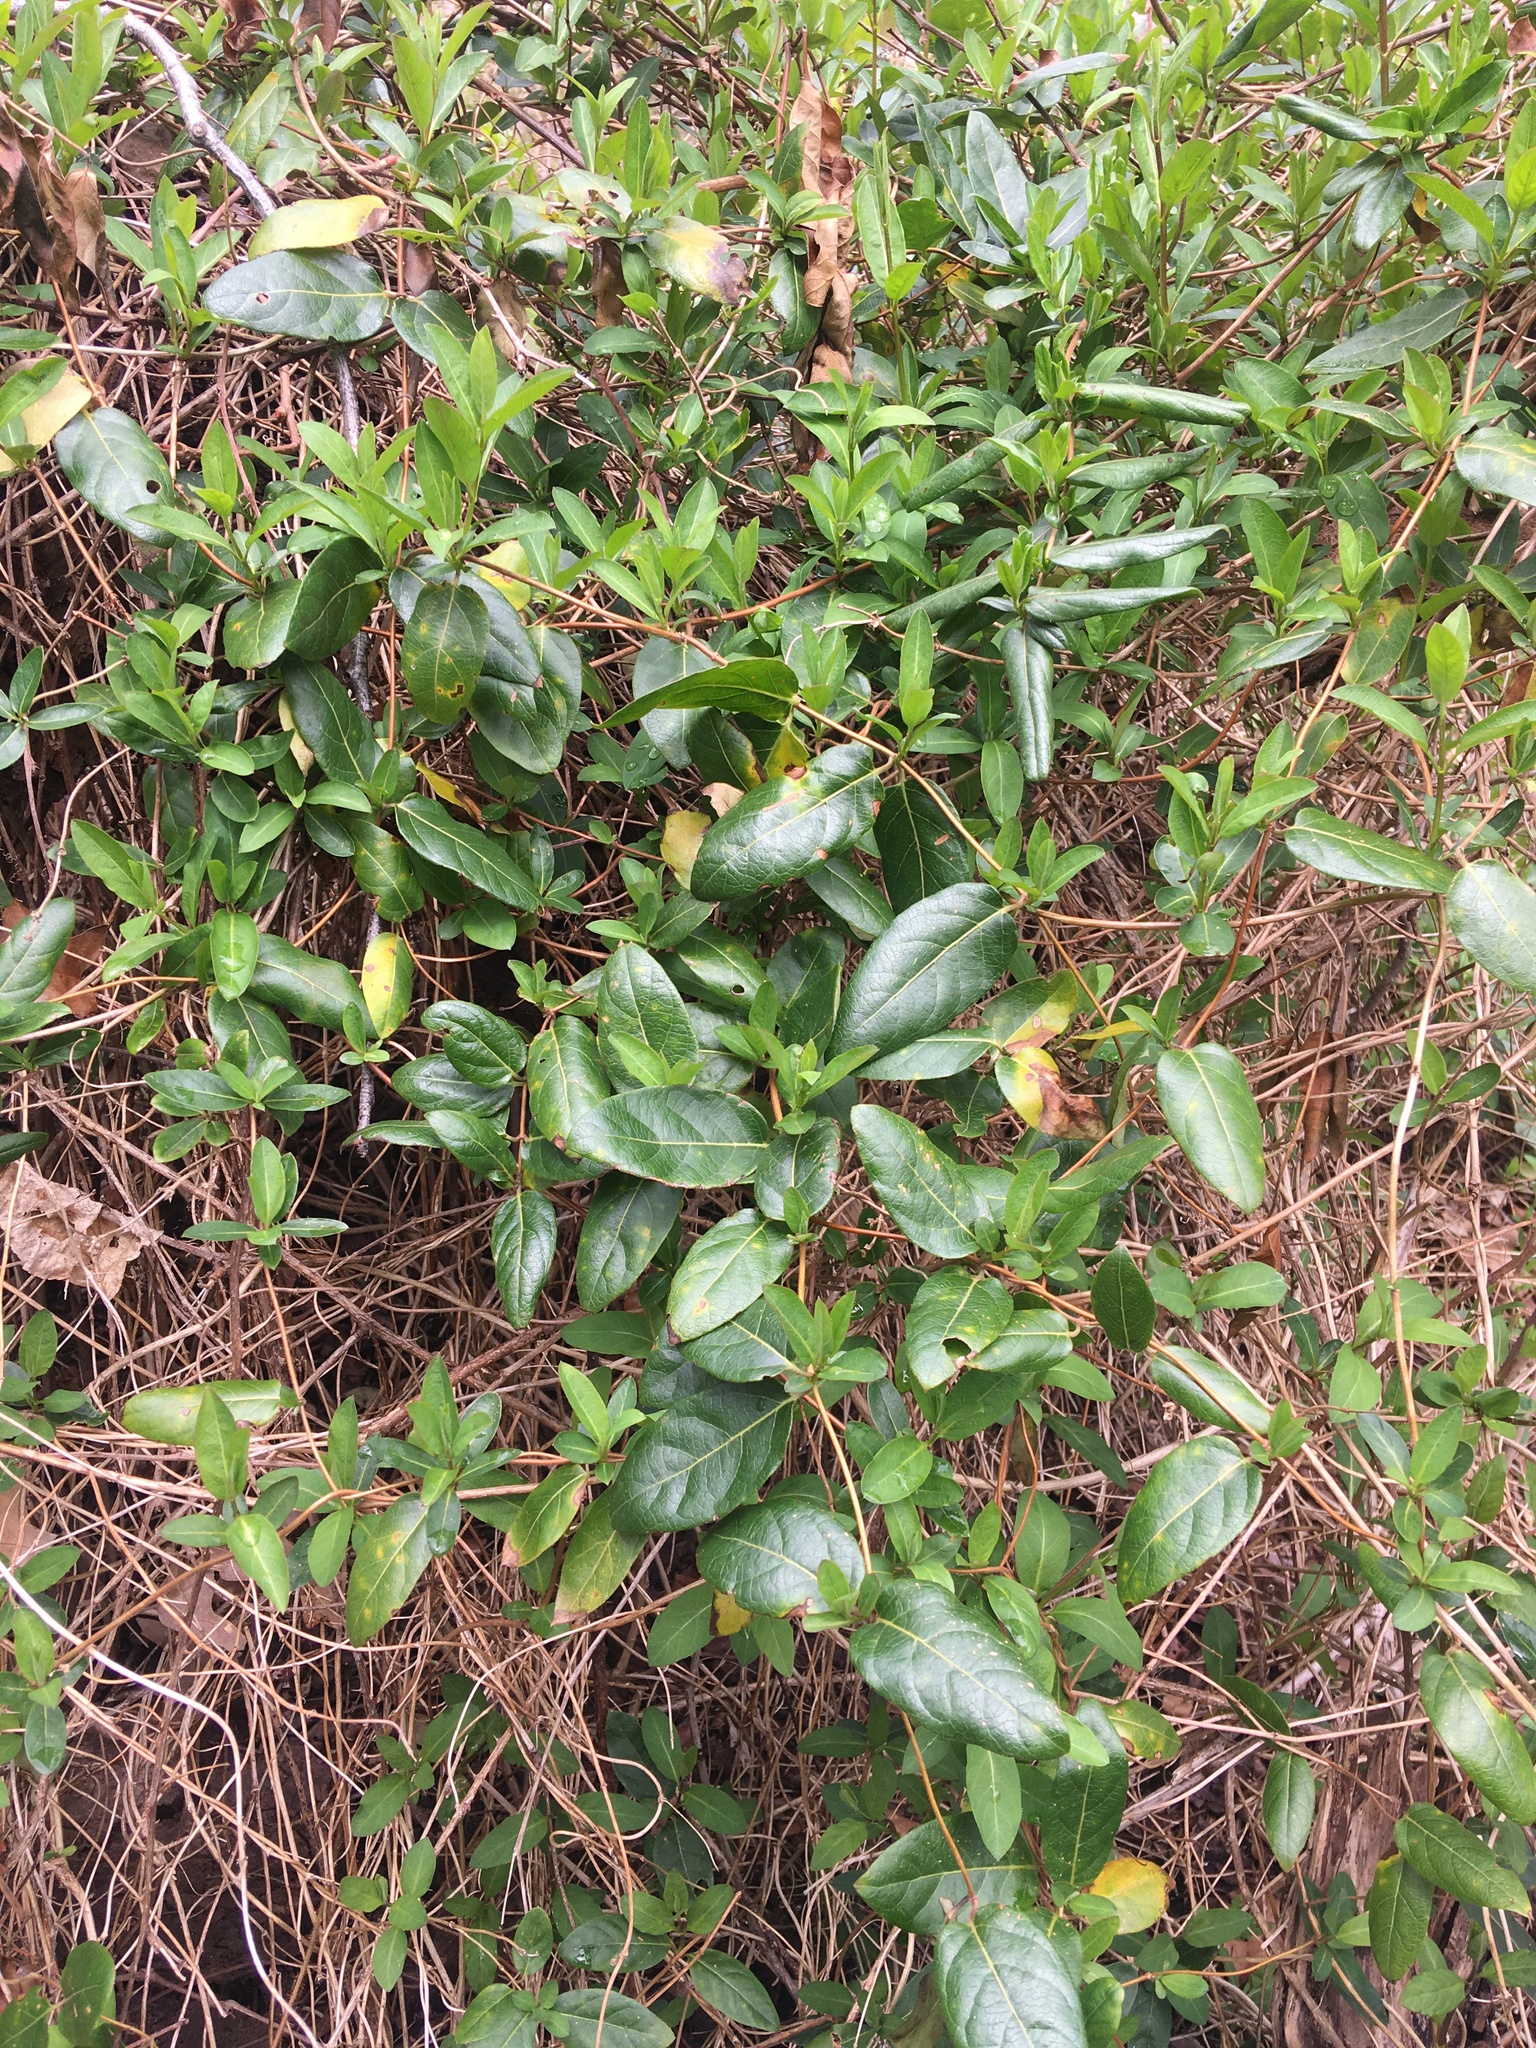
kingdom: Plantae
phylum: Tracheophyta
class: Magnoliopsida
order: Dipsacales
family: Caprifoliaceae
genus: Lonicera
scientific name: Lonicera japonica
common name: Japanese honeysuckle
